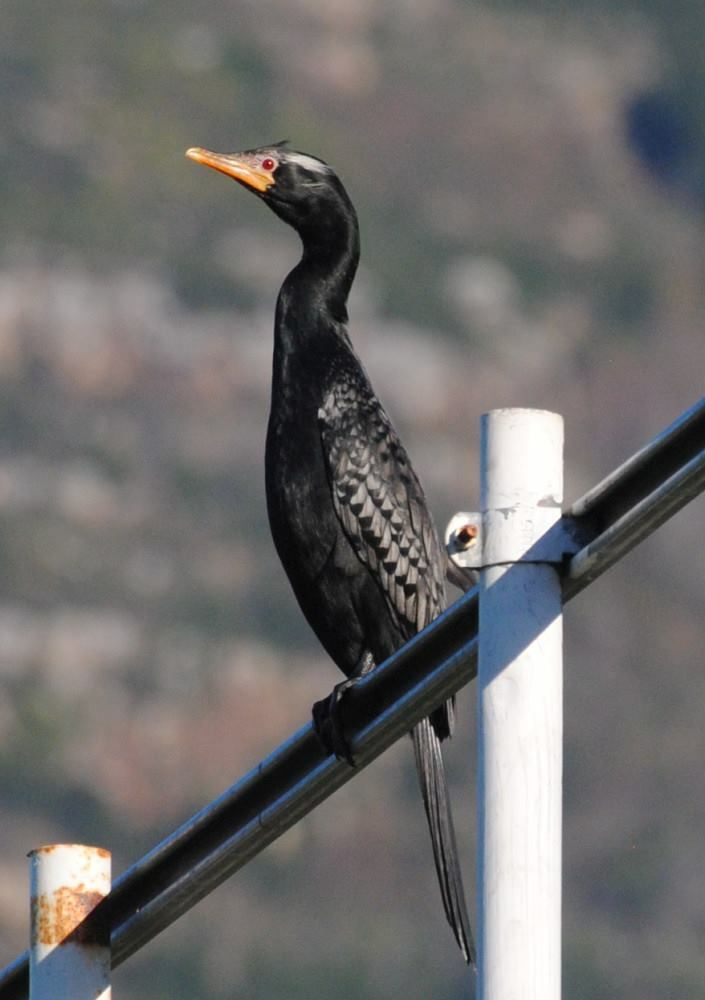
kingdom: Animalia
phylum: Chordata
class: Aves
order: Suliformes
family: Phalacrocoracidae
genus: Microcarbo
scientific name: Microcarbo africanus
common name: Long-tailed cormorant
